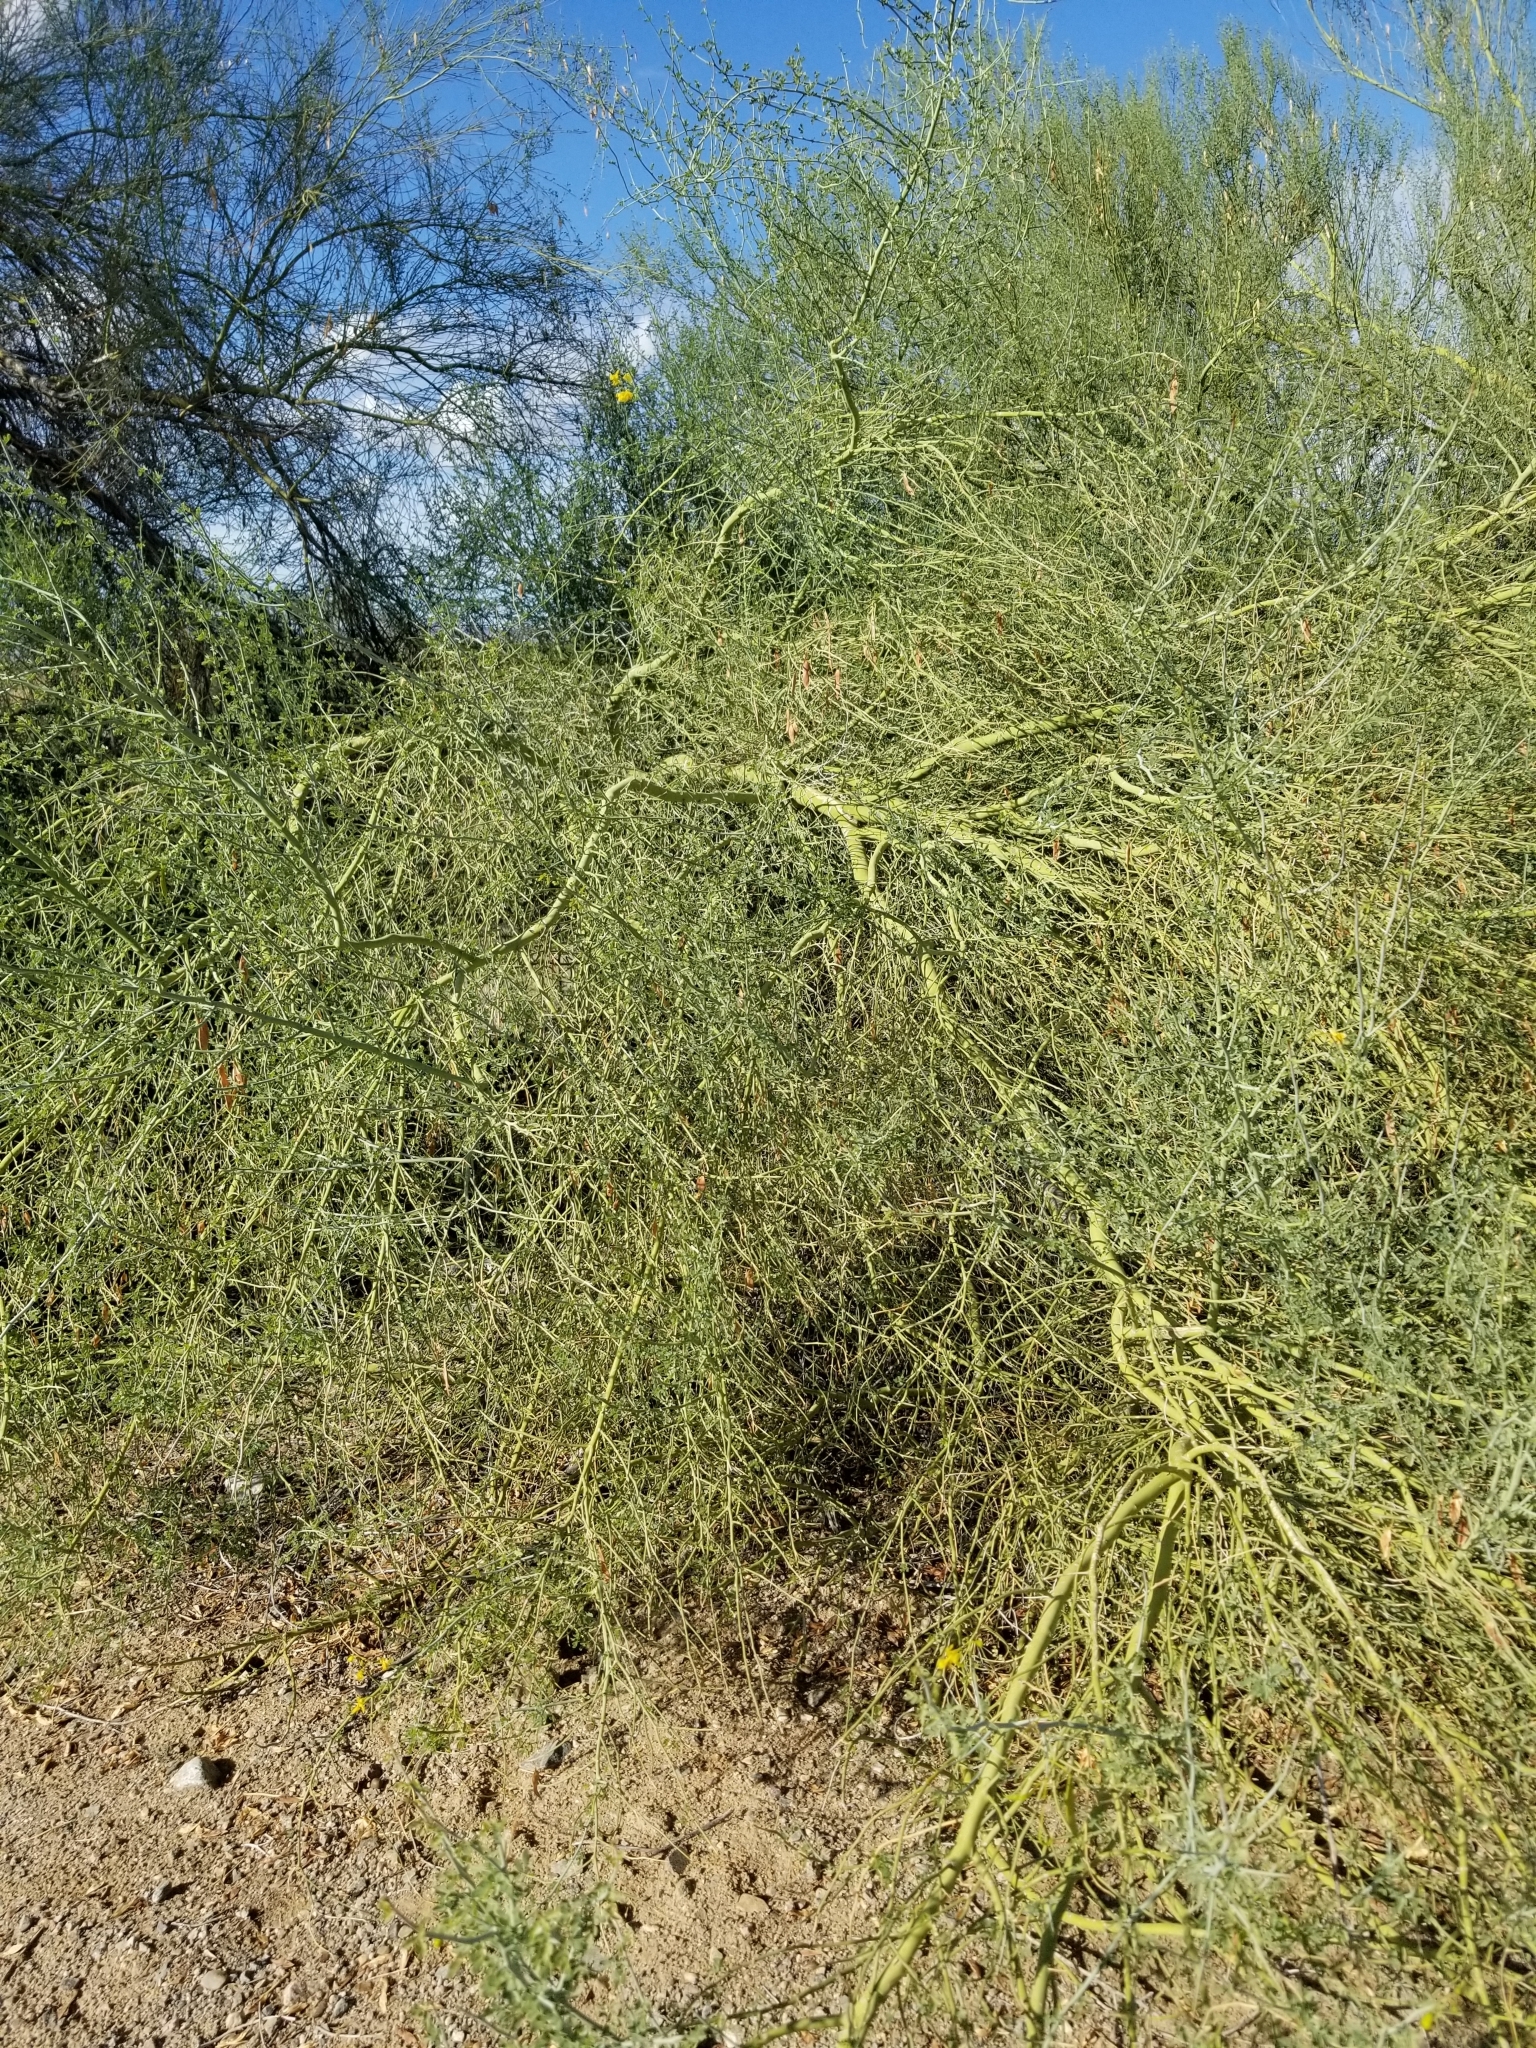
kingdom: Plantae
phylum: Tracheophyta
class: Magnoliopsida
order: Fabales
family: Fabaceae
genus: Parkinsonia
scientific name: Parkinsonia florida
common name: Blue paloverde
